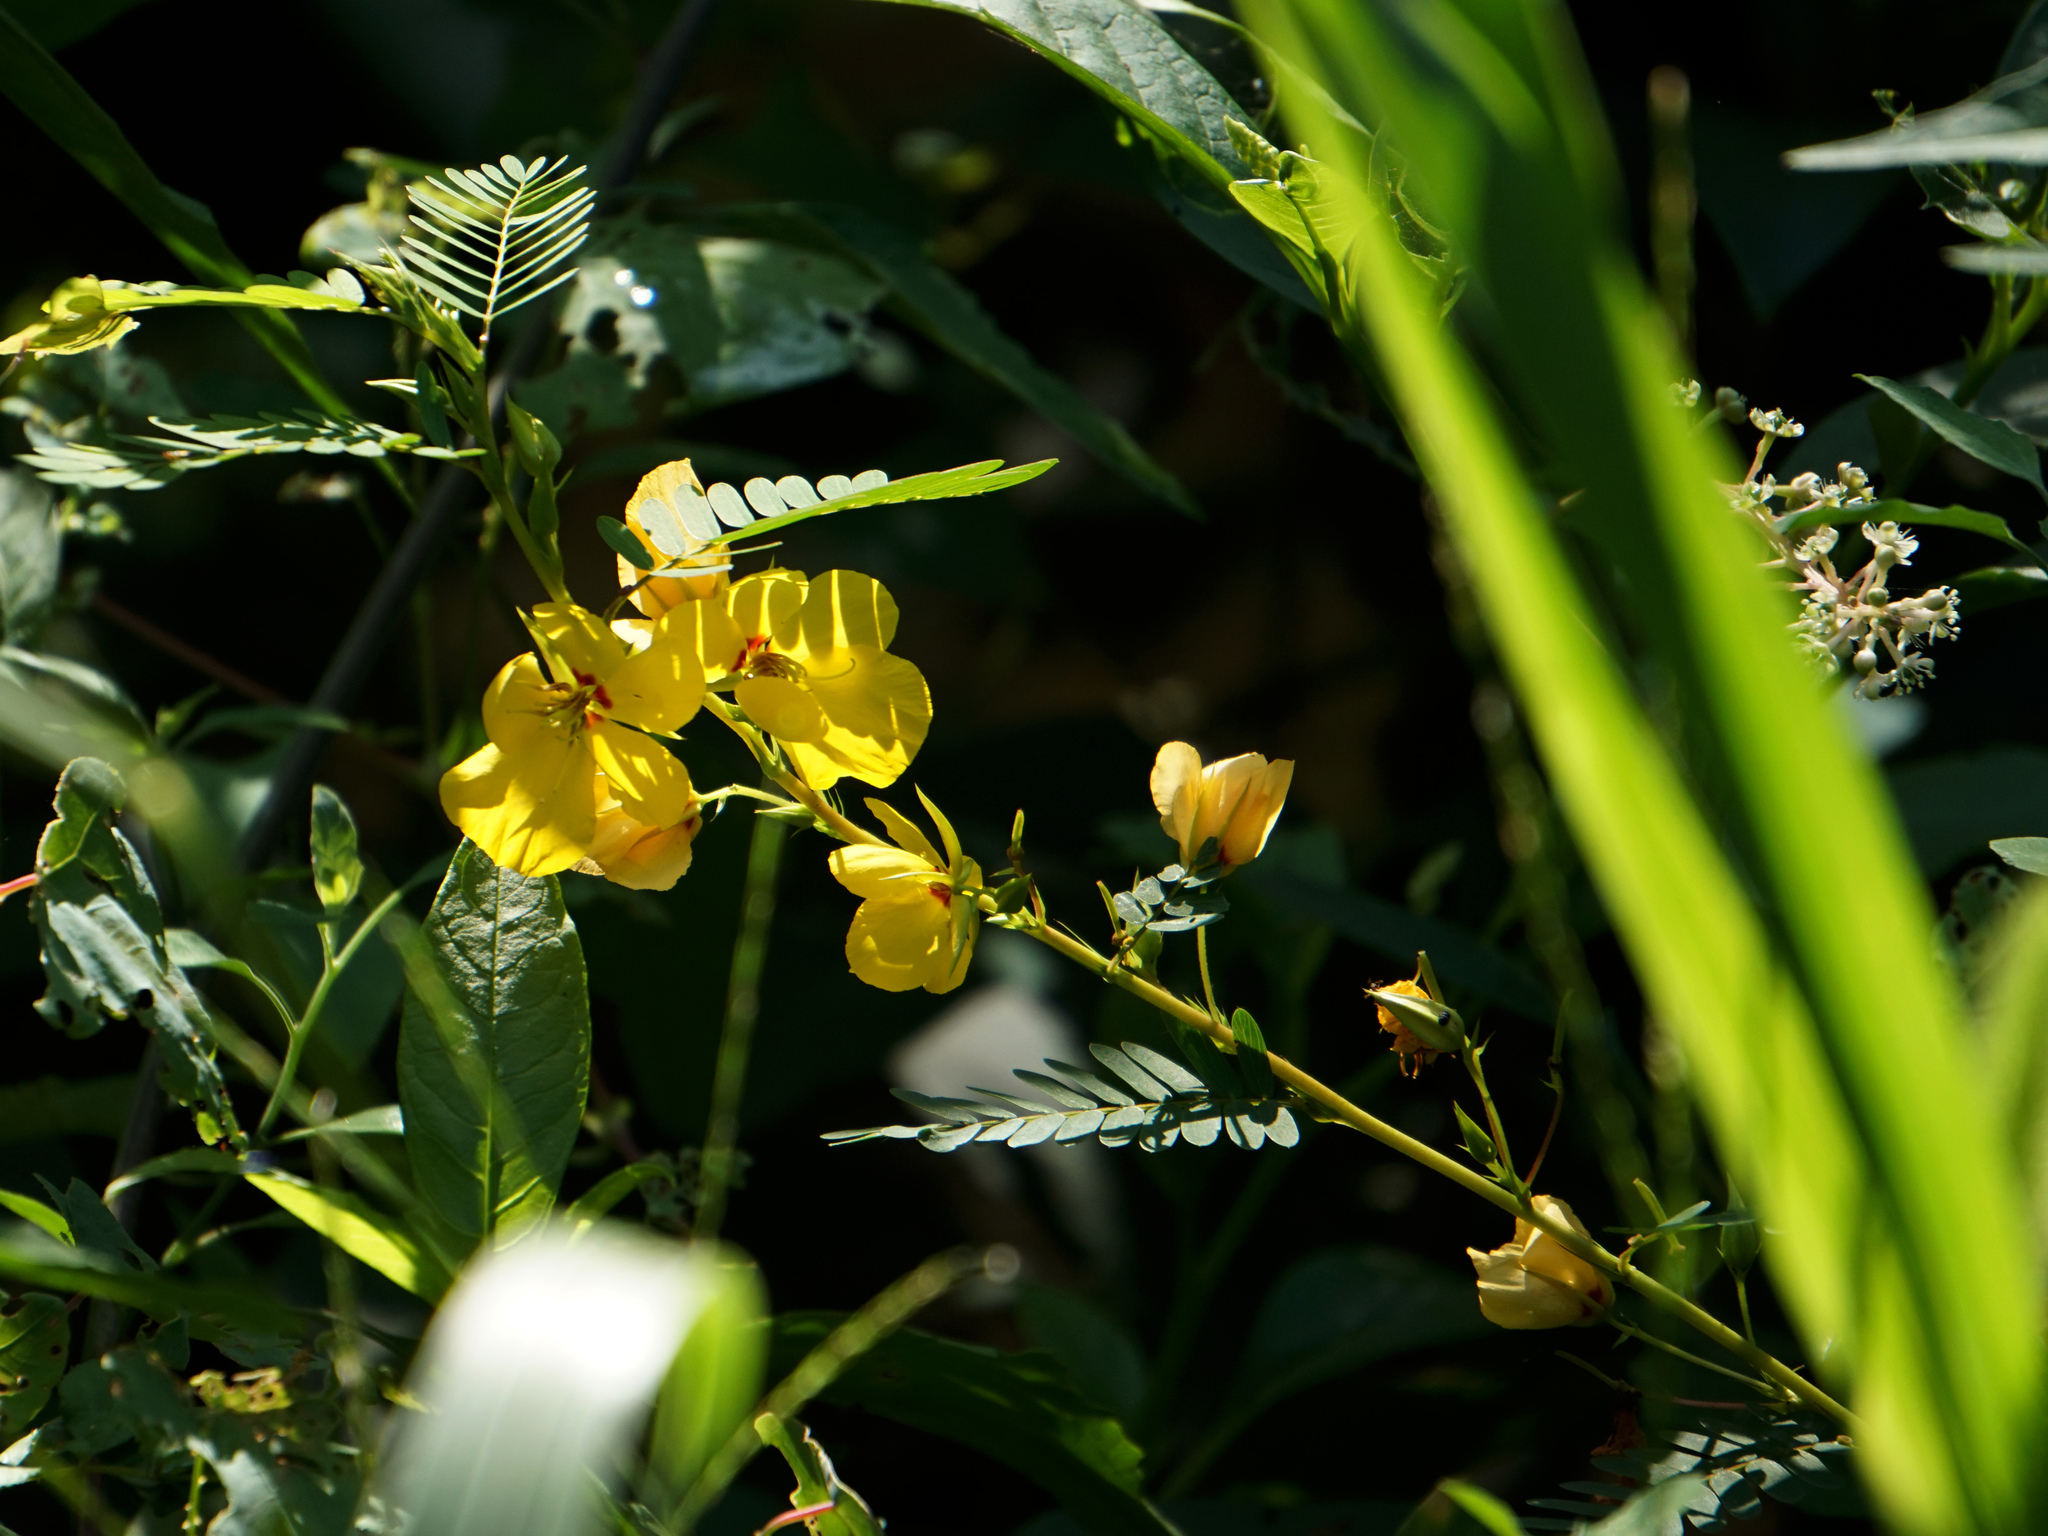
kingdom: Plantae
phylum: Tracheophyta
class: Magnoliopsida
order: Fabales
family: Fabaceae
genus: Chamaecrista
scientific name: Chamaecrista fasciculata
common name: Golden cassia
